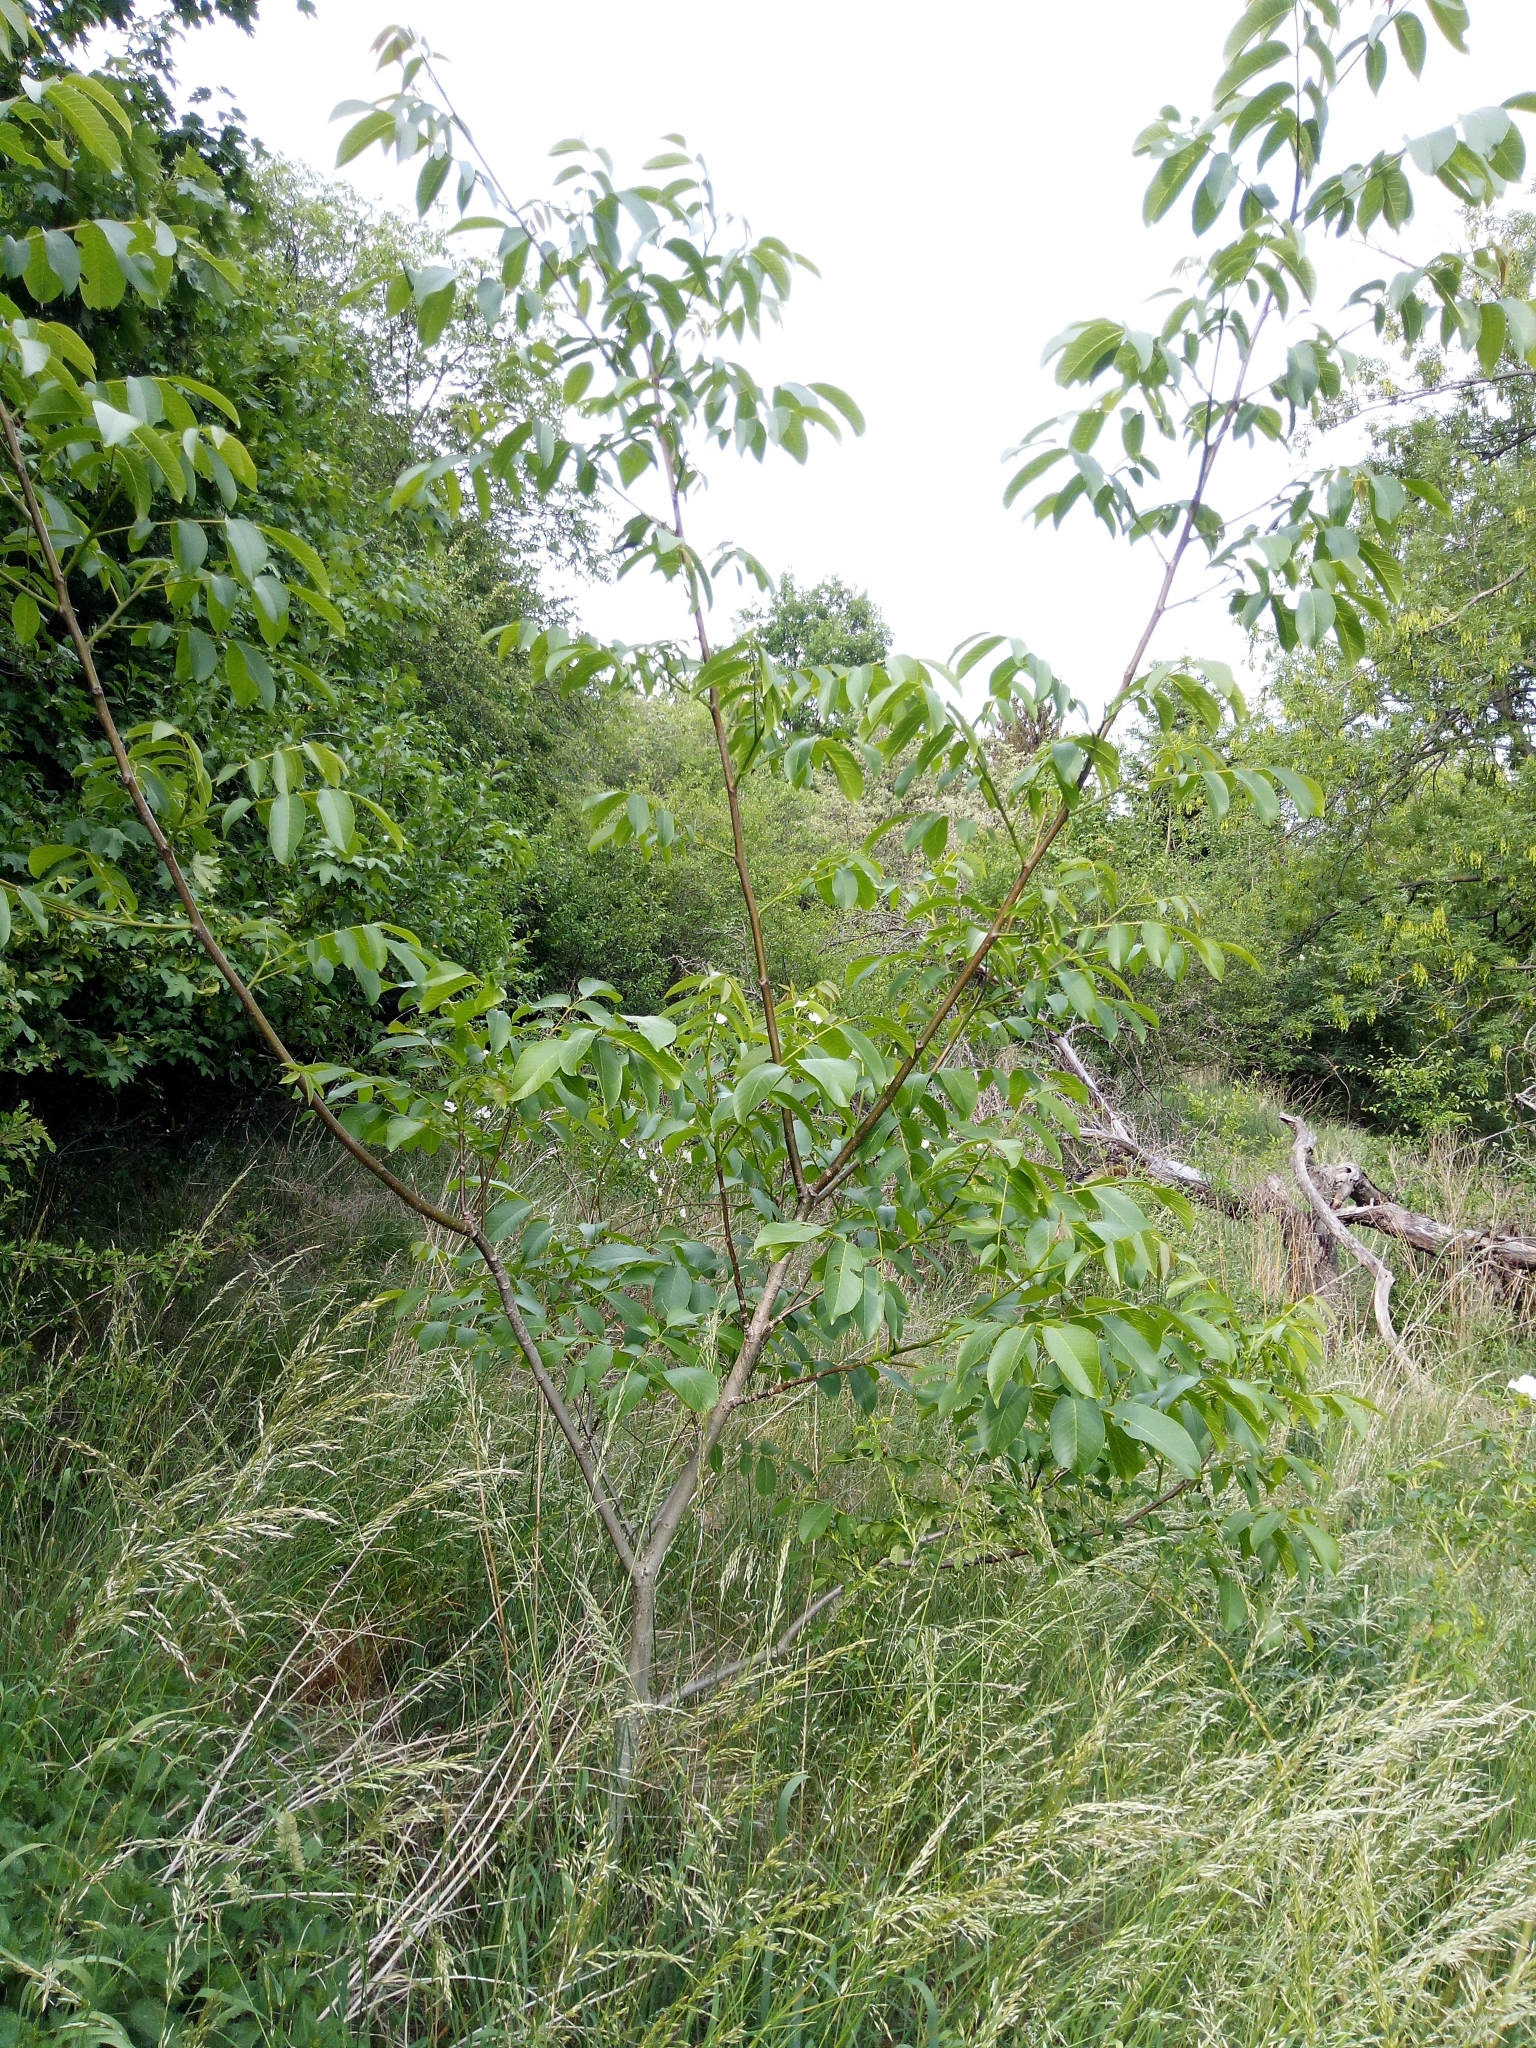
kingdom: Plantae
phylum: Tracheophyta
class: Magnoliopsida
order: Fagales
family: Juglandaceae
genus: Juglans
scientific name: Juglans regia
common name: Walnut
